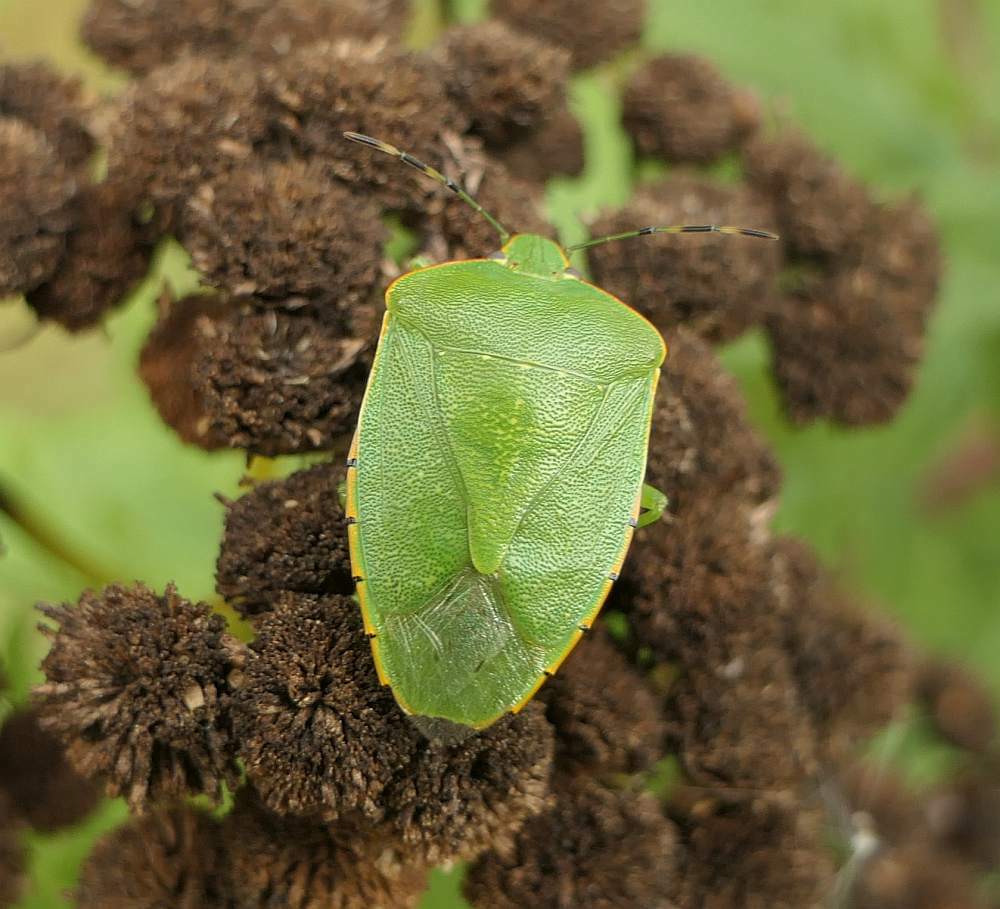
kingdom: Animalia
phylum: Arthropoda
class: Insecta
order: Hemiptera
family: Pentatomidae
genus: Chinavia
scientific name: Chinavia hilaris
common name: Green stink bug
